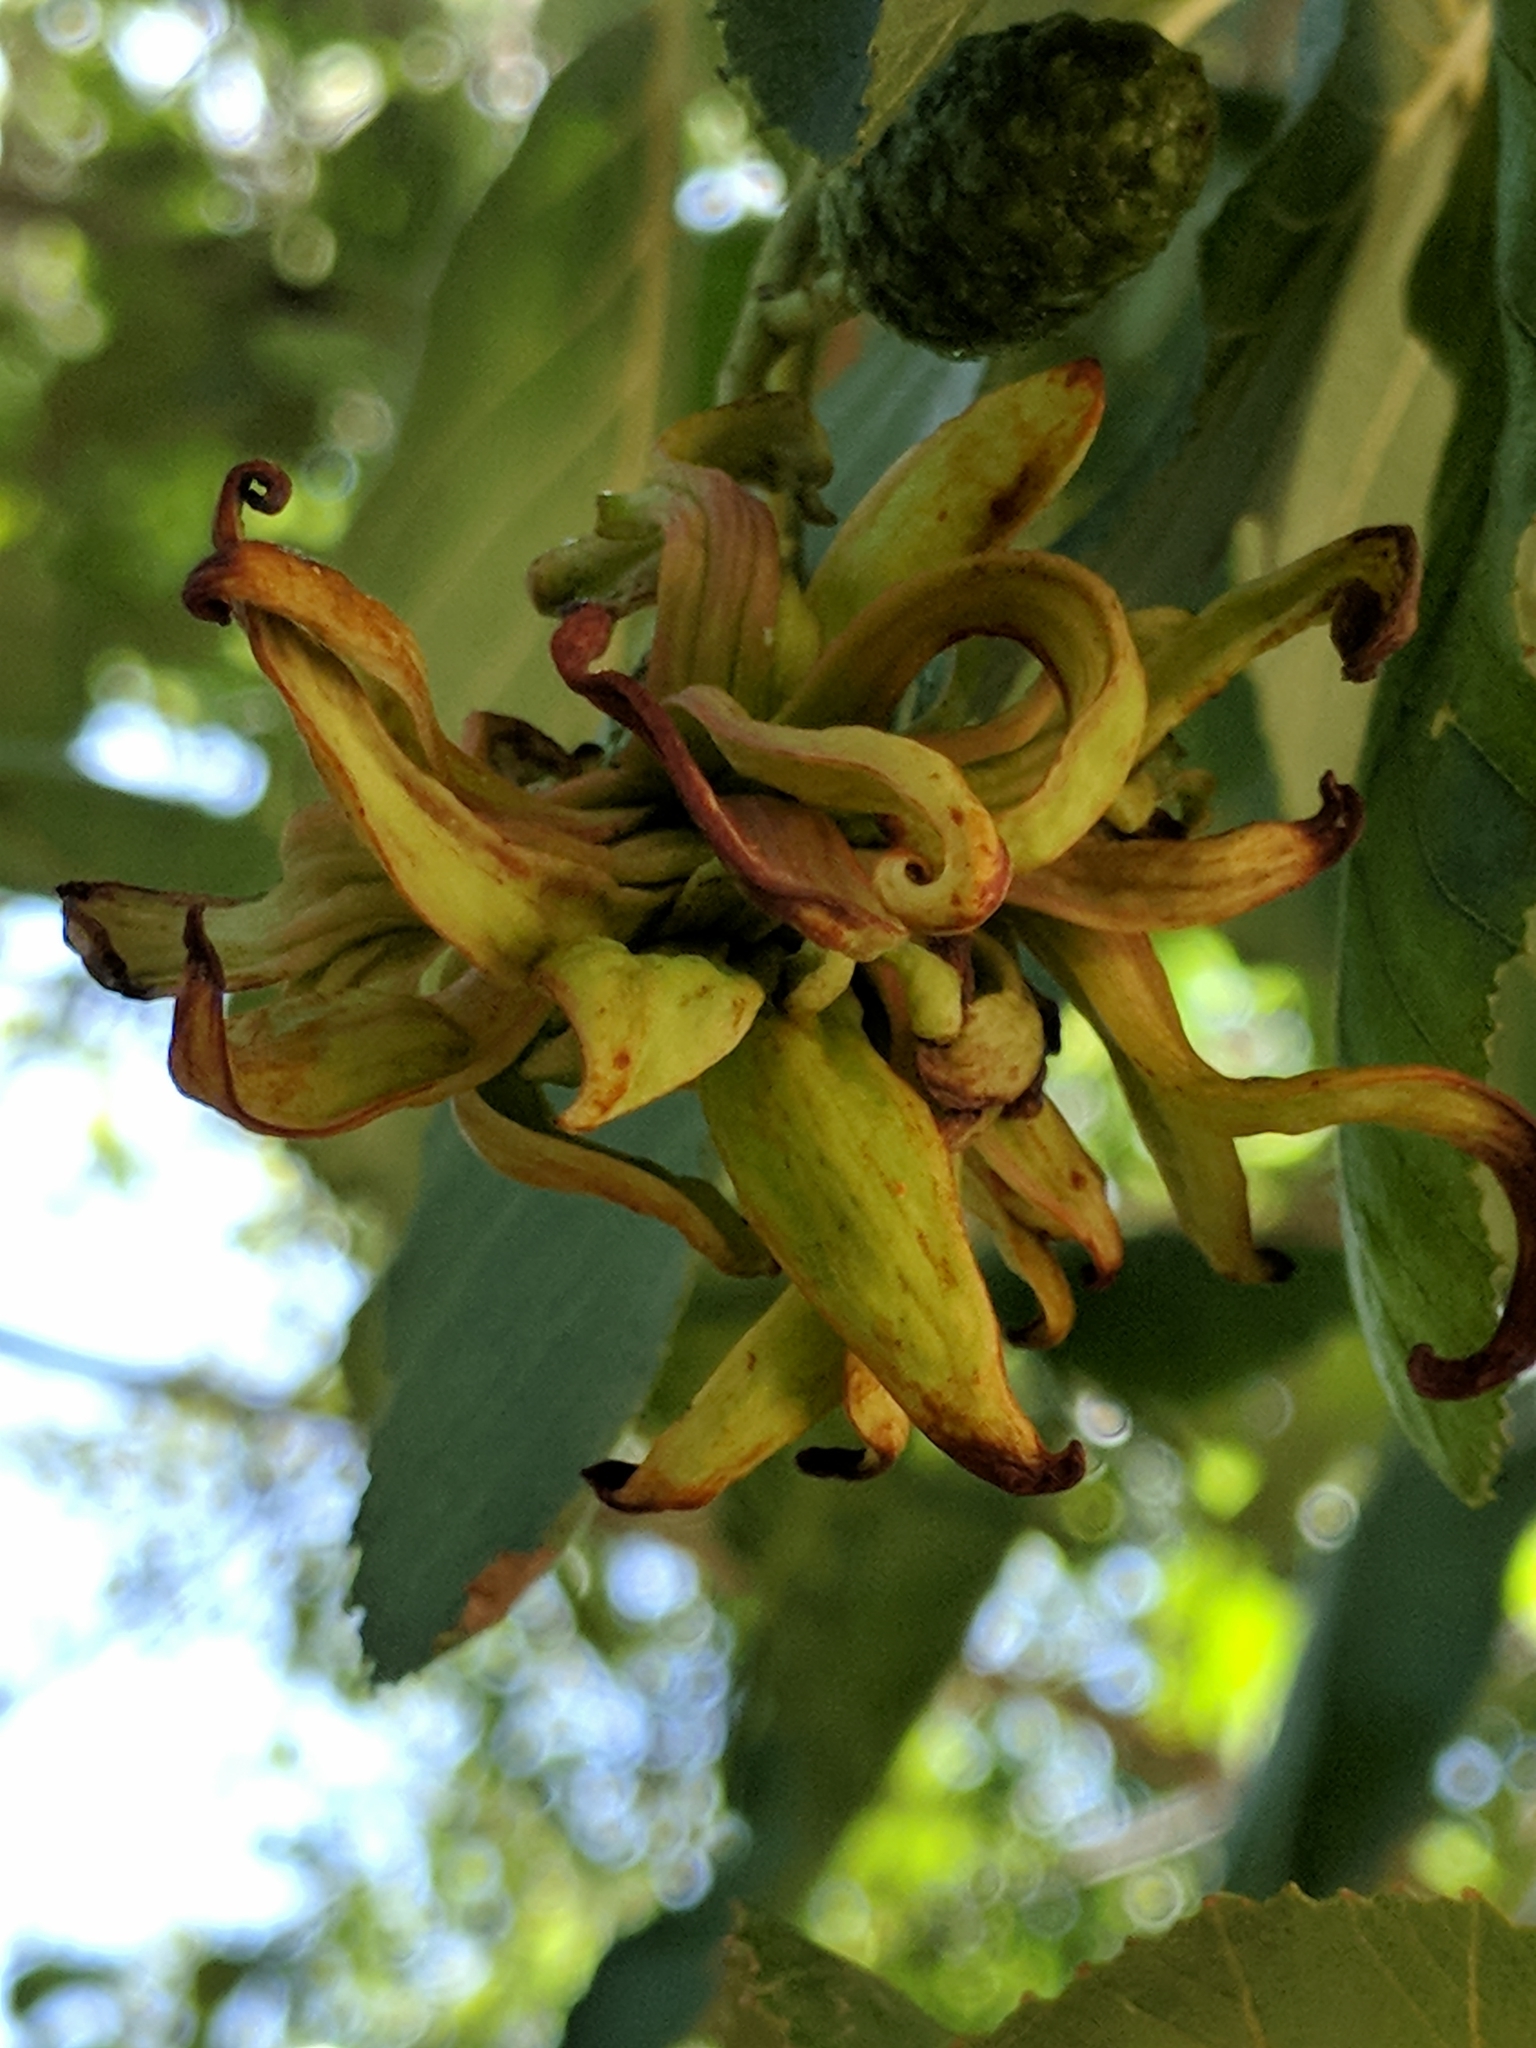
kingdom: Fungi
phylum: Ascomycota
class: Taphrinomycetes
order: Taphrinales
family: Taphrinaceae
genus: Taphrina
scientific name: Taphrina occidentalis
